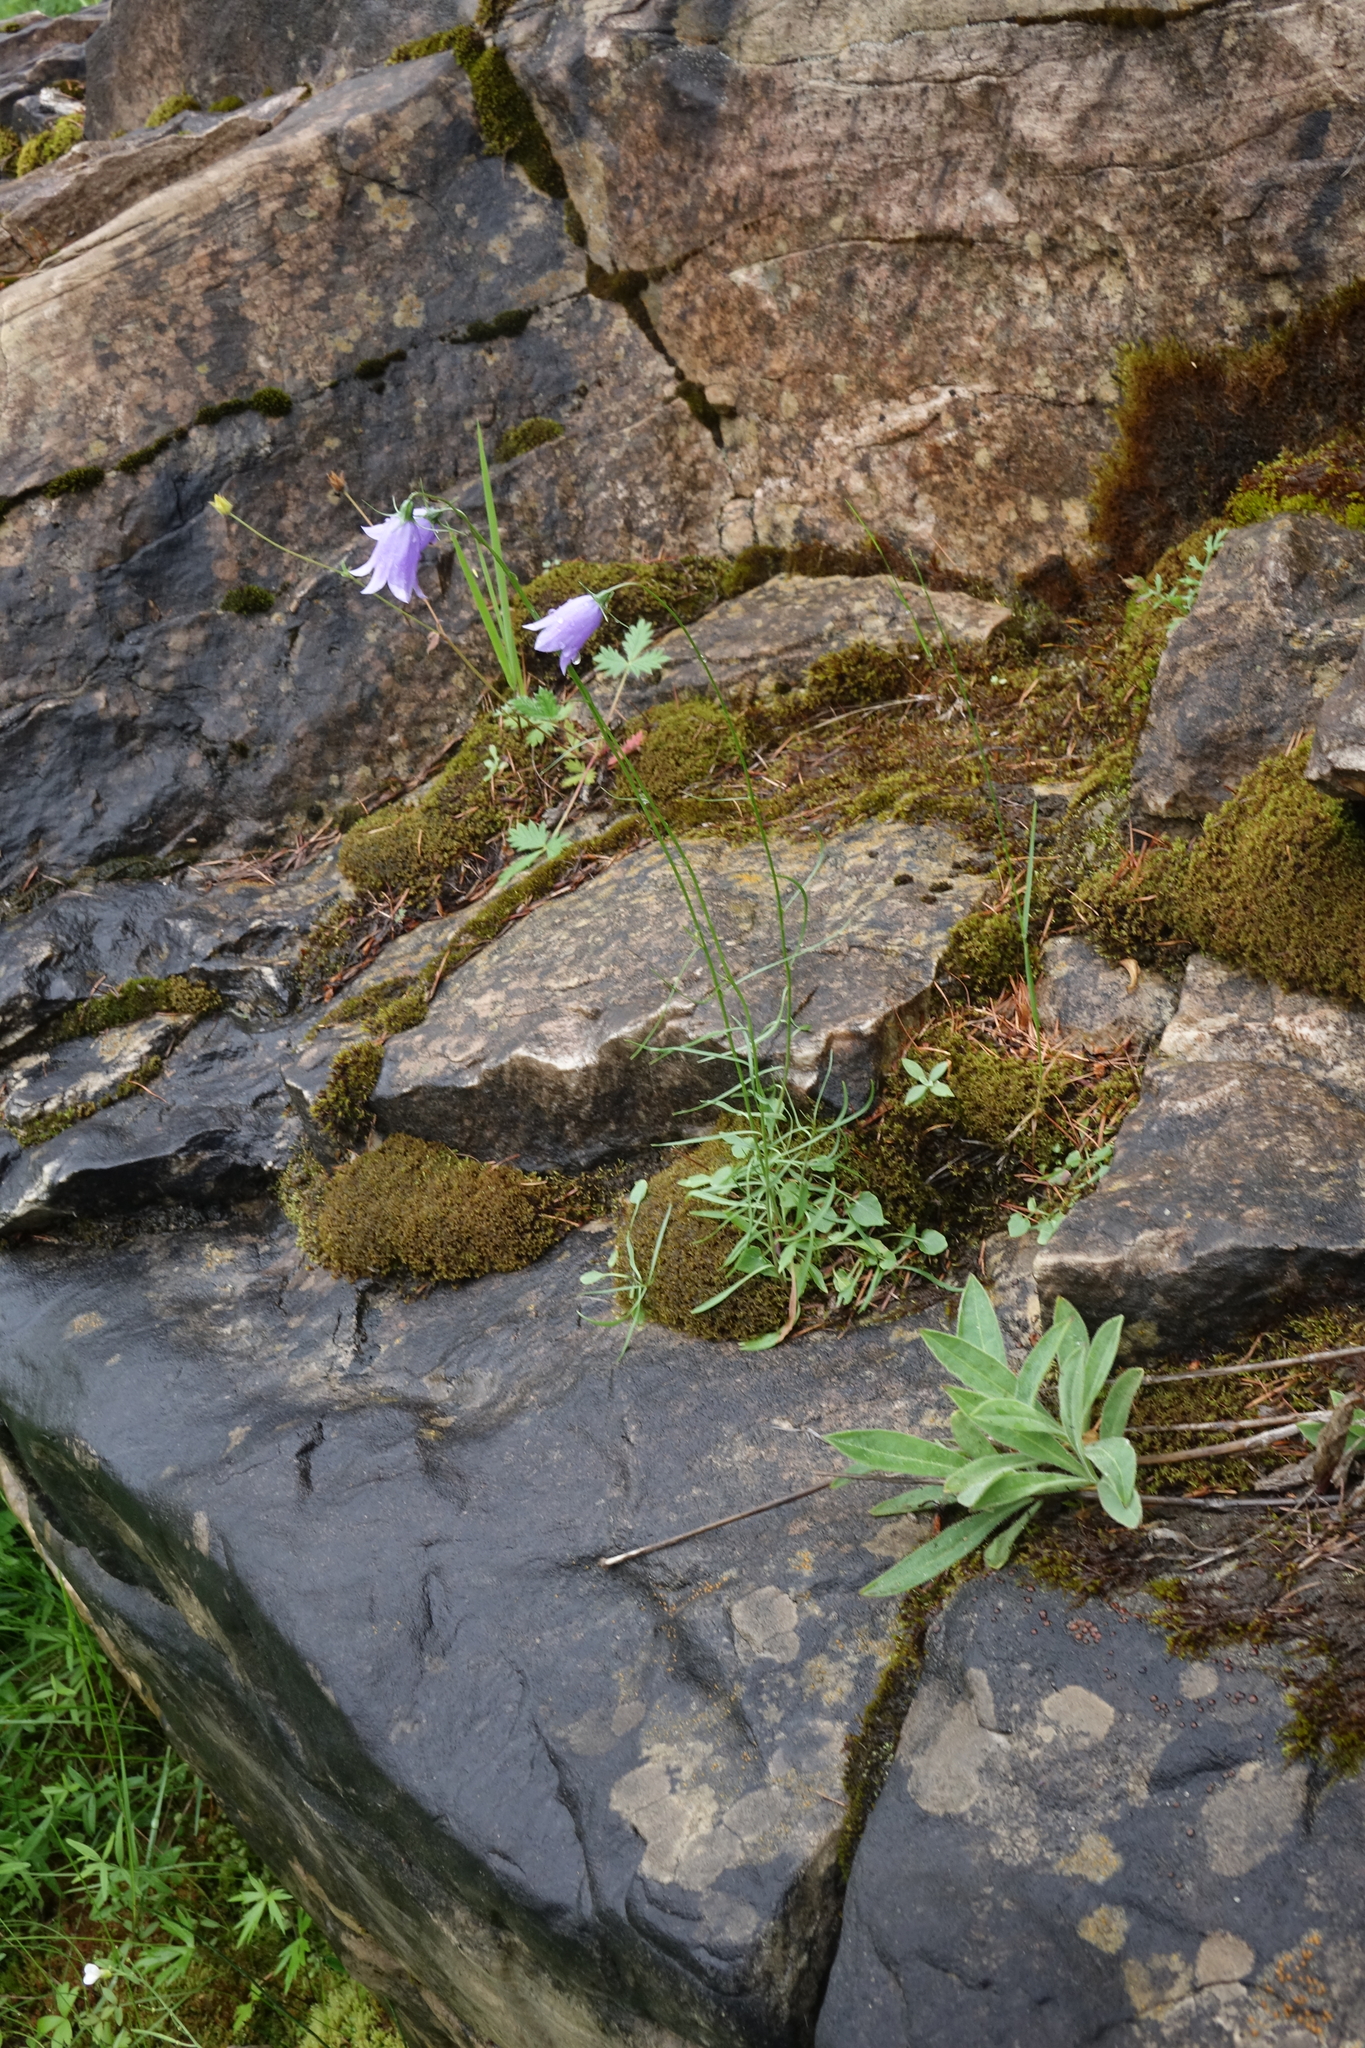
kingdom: Plantae
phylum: Tracheophyta
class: Magnoliopsida
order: Asterales
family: Campanulaceae
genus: Campanula
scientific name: Campanula rotundifolia
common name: Harebell
